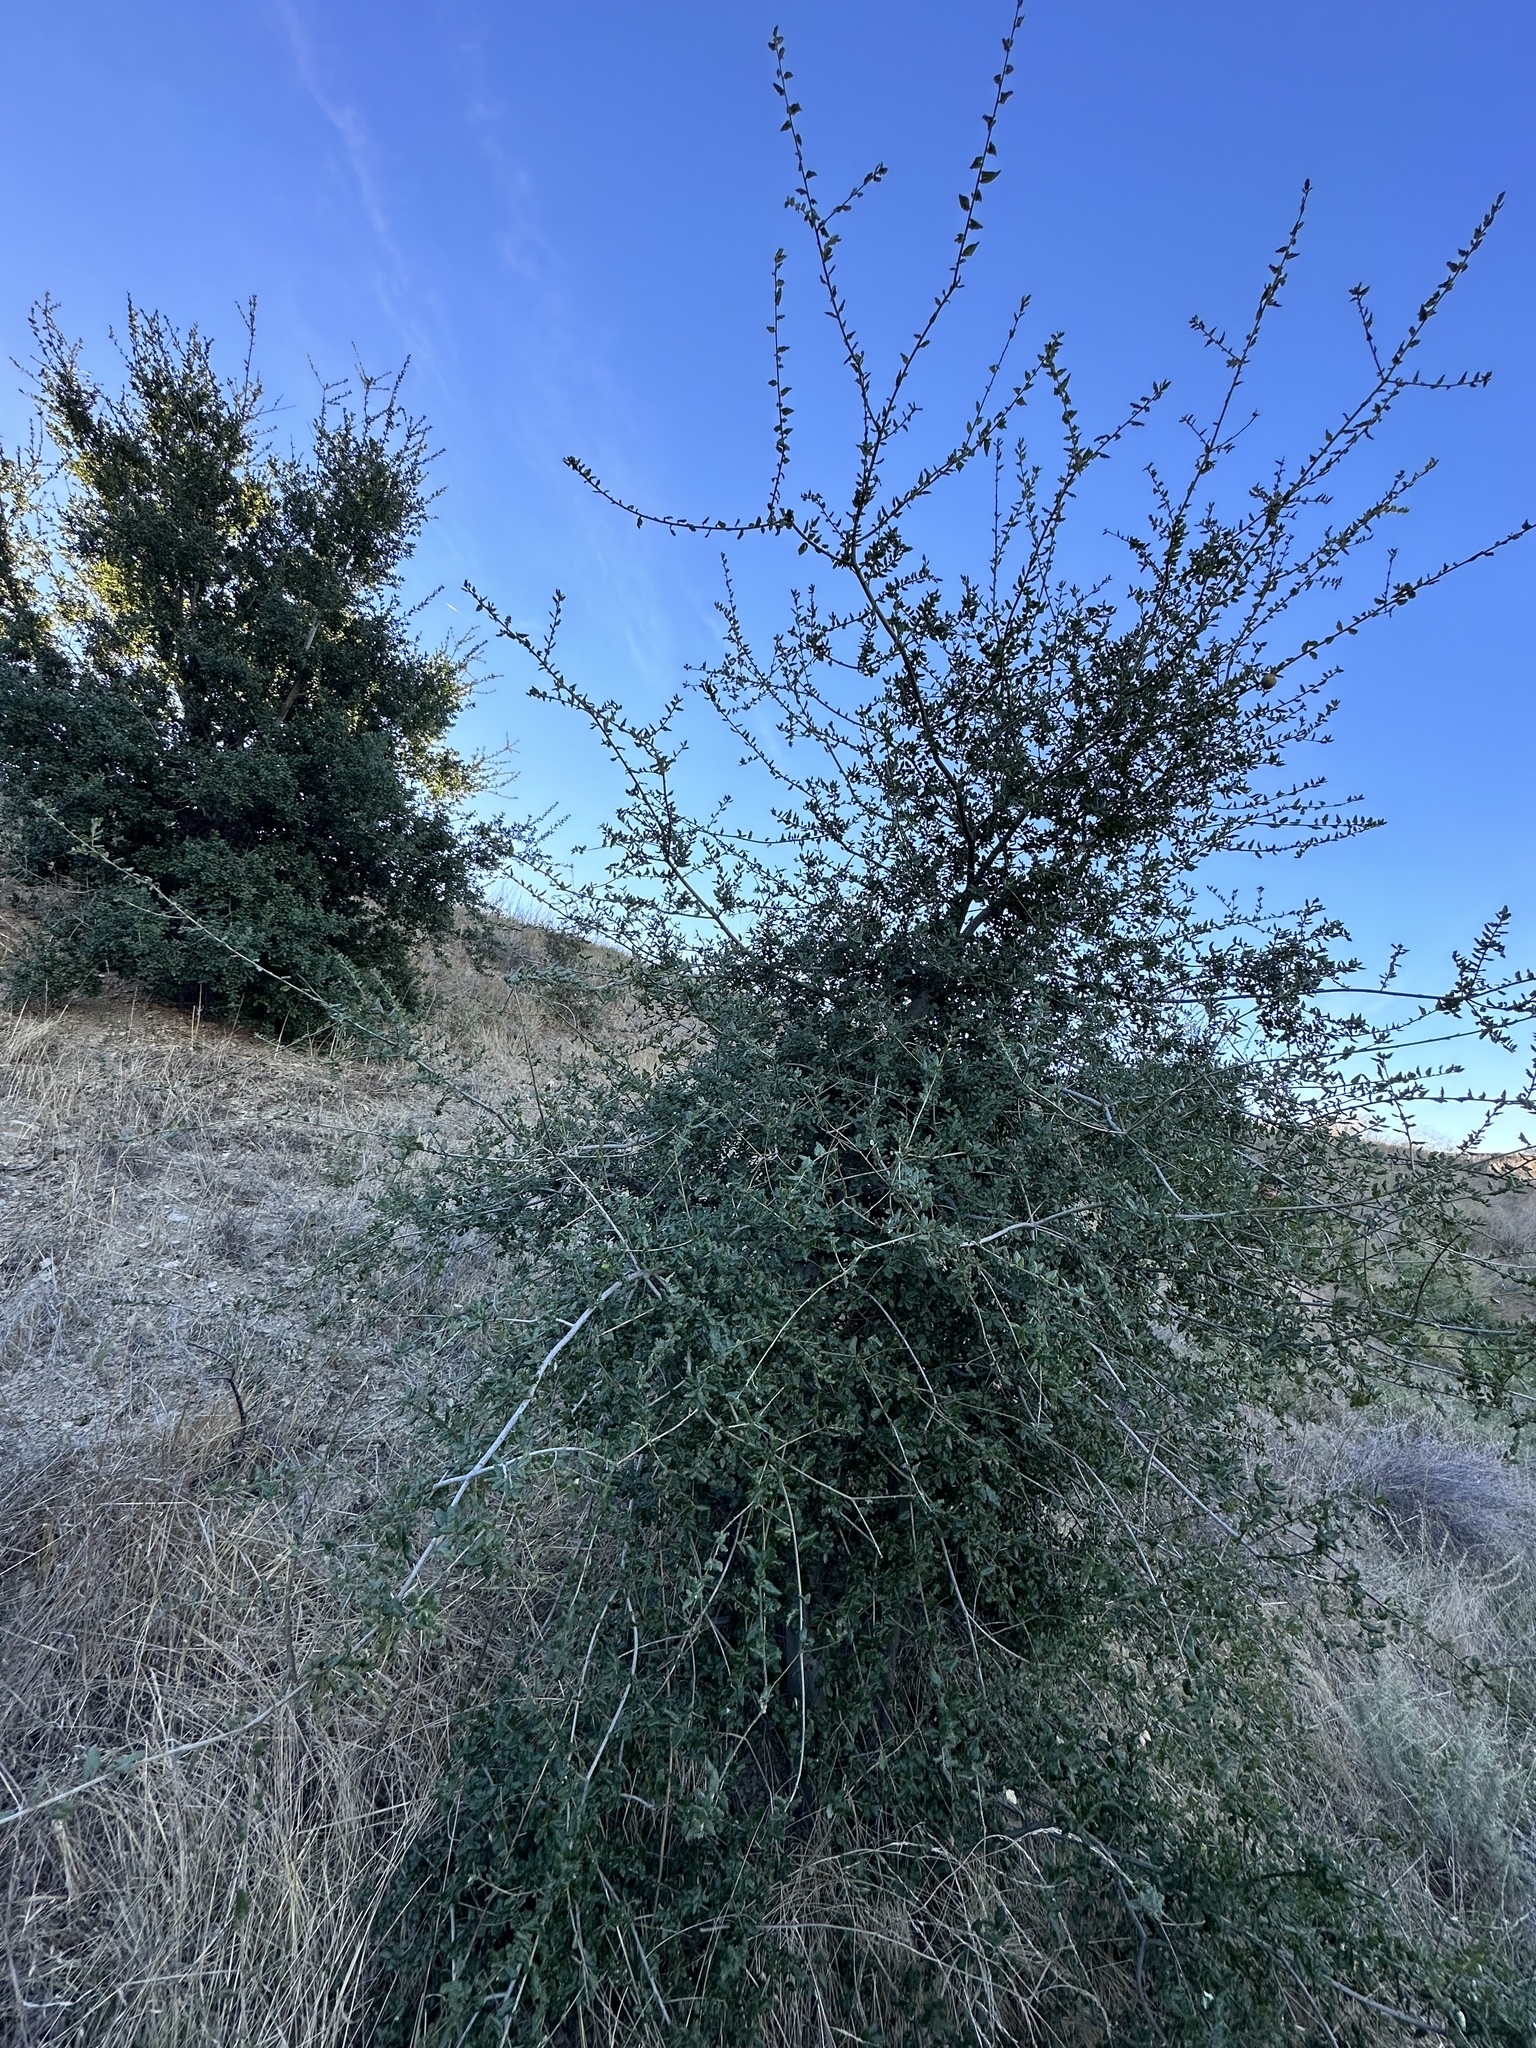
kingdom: Plantae
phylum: Tracheophyta
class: Magnoliopsida
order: Fagales
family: Fagaceae
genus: Quercus
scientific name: Quercus agrifolia
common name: California live oak
